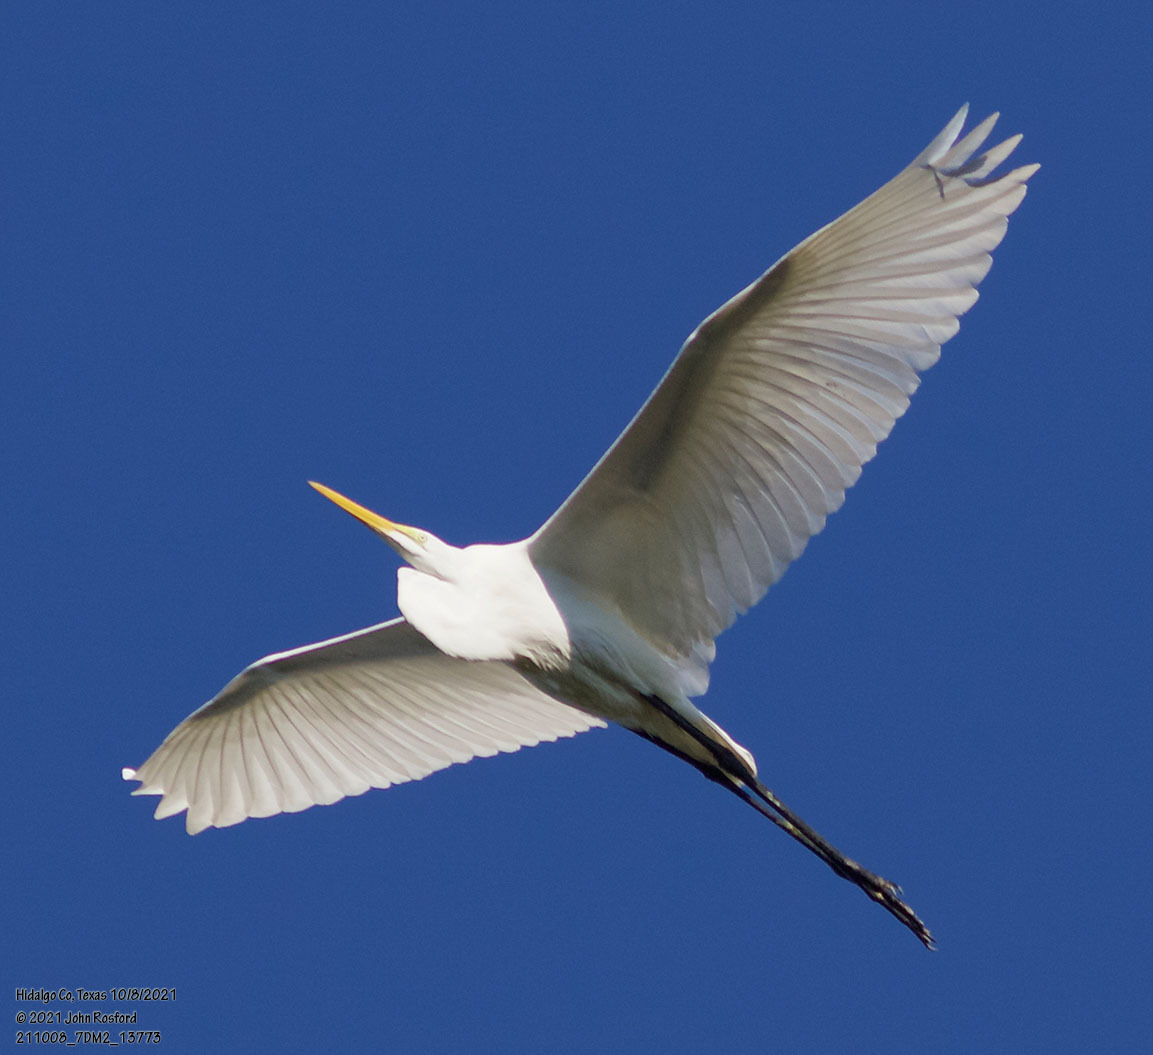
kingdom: Animalia
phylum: Chordata
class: Aves
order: Pelecaniformes
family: Ardeidae
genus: Ardea
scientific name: Ardea alba
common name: Great egret
